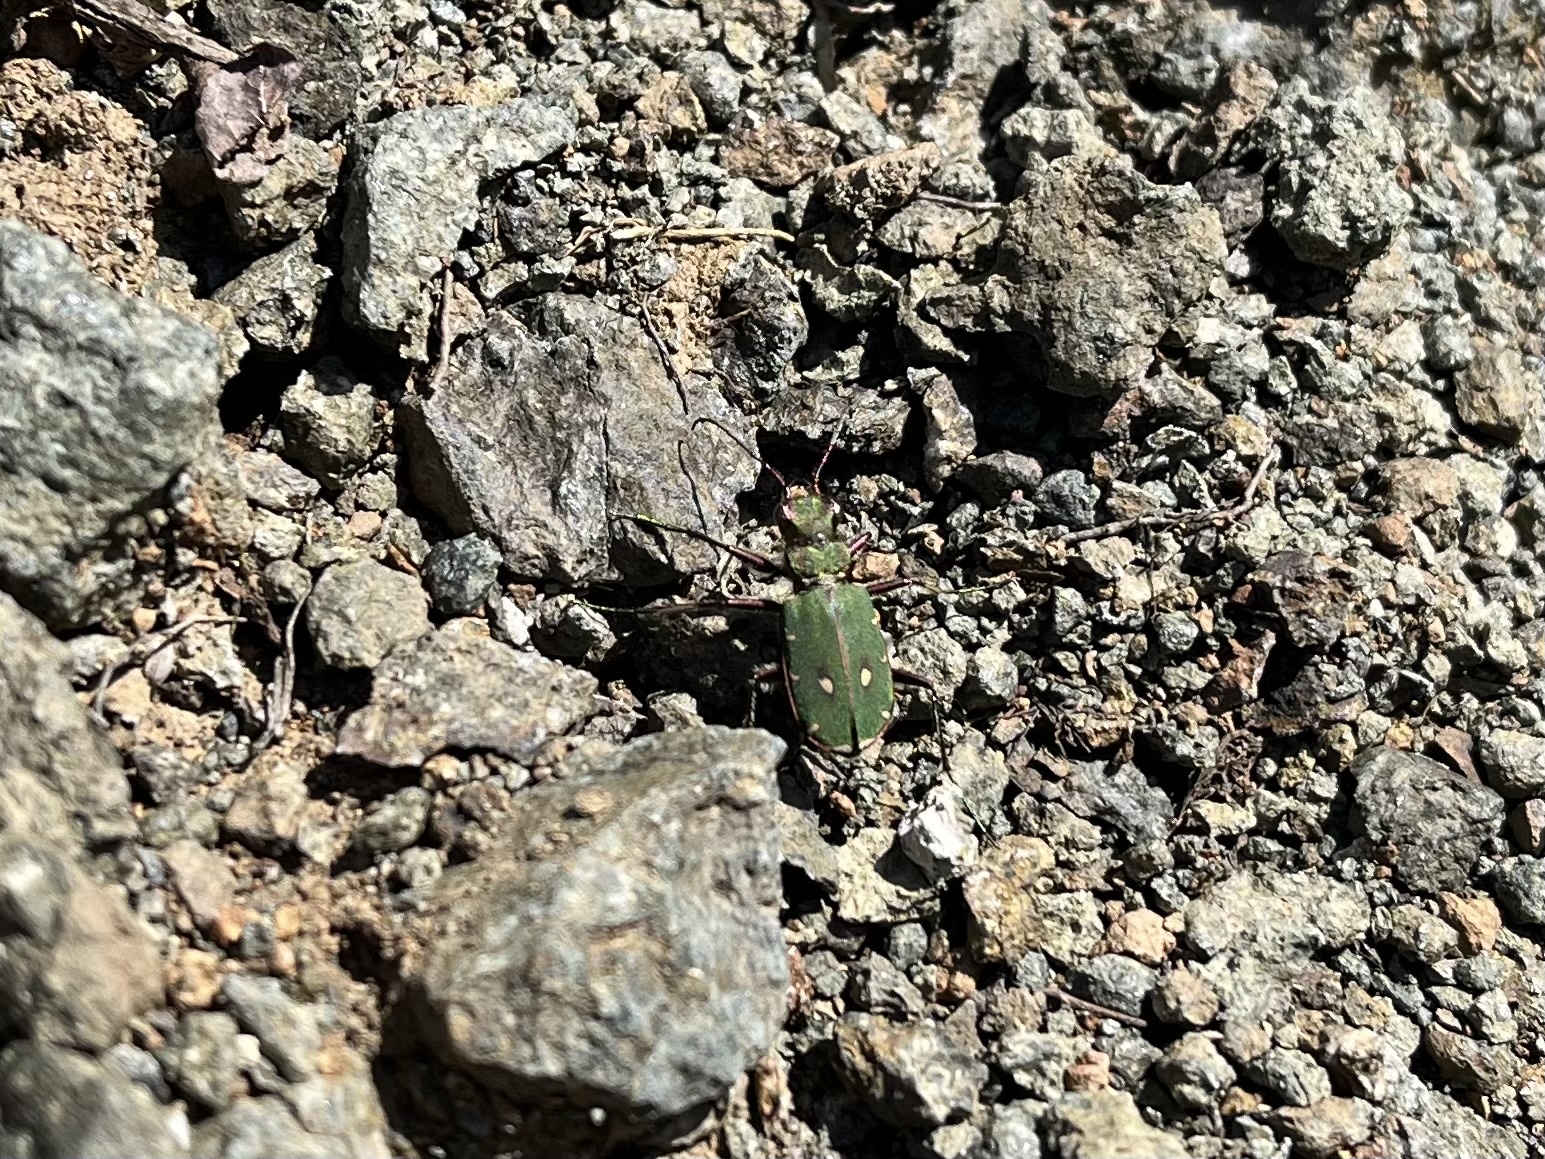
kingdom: Animalia
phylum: Arthropoda
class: Insecta
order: Coleoptera
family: Carabidae
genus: Cicindela
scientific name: Cicindela campestris
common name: Common tiger beetle
